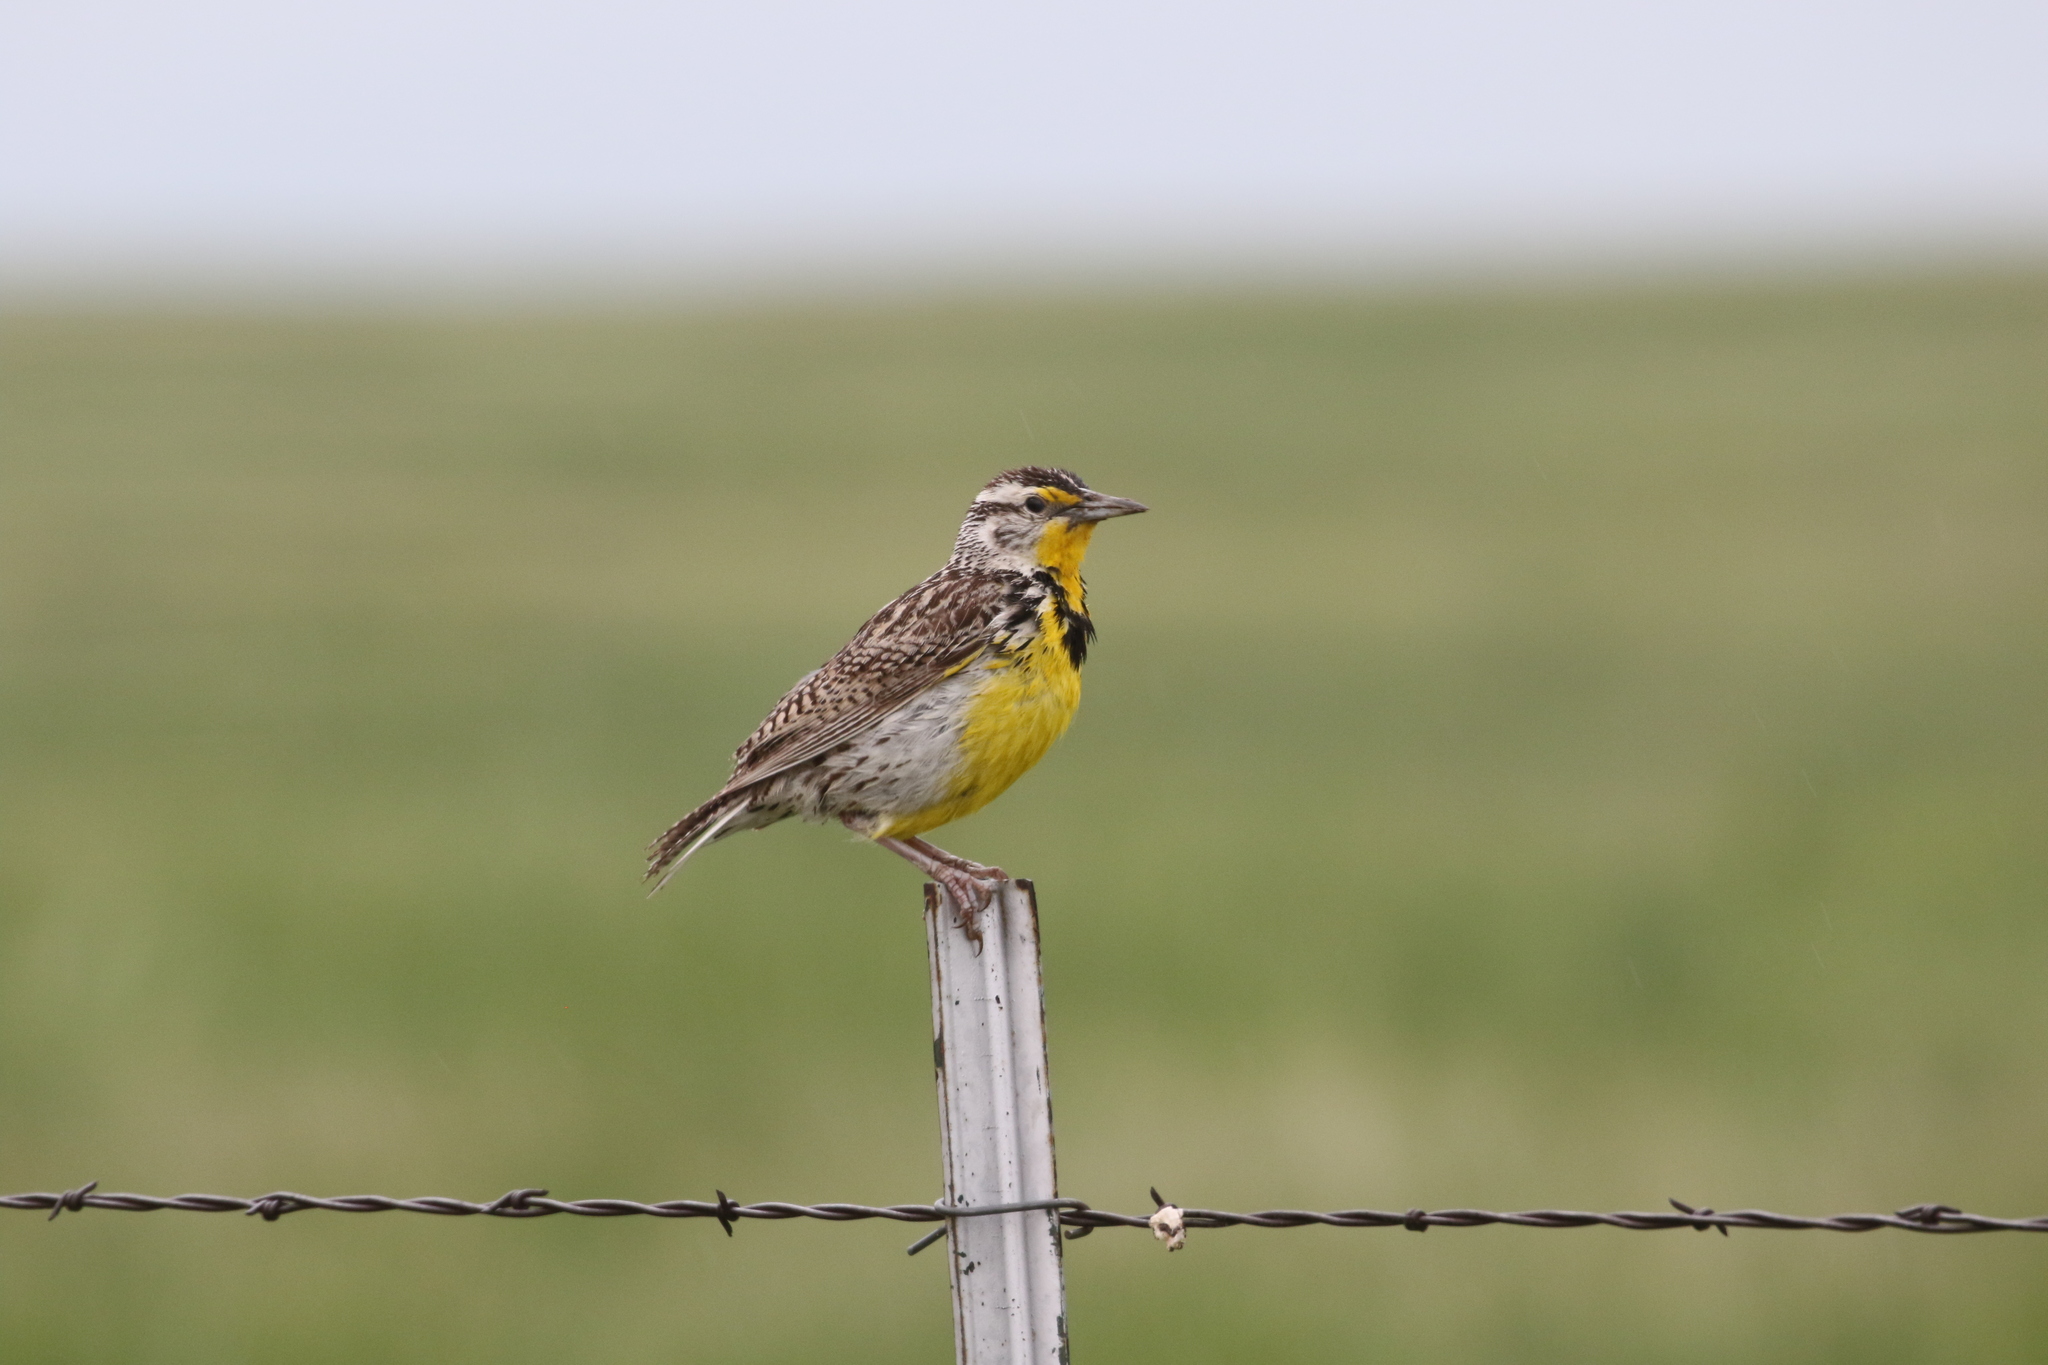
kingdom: Animalia
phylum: Chordata
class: Aves
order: Passeriformes
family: Icteridae
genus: Sturnella
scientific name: Sturnella neglecta
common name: Western meadowlark
